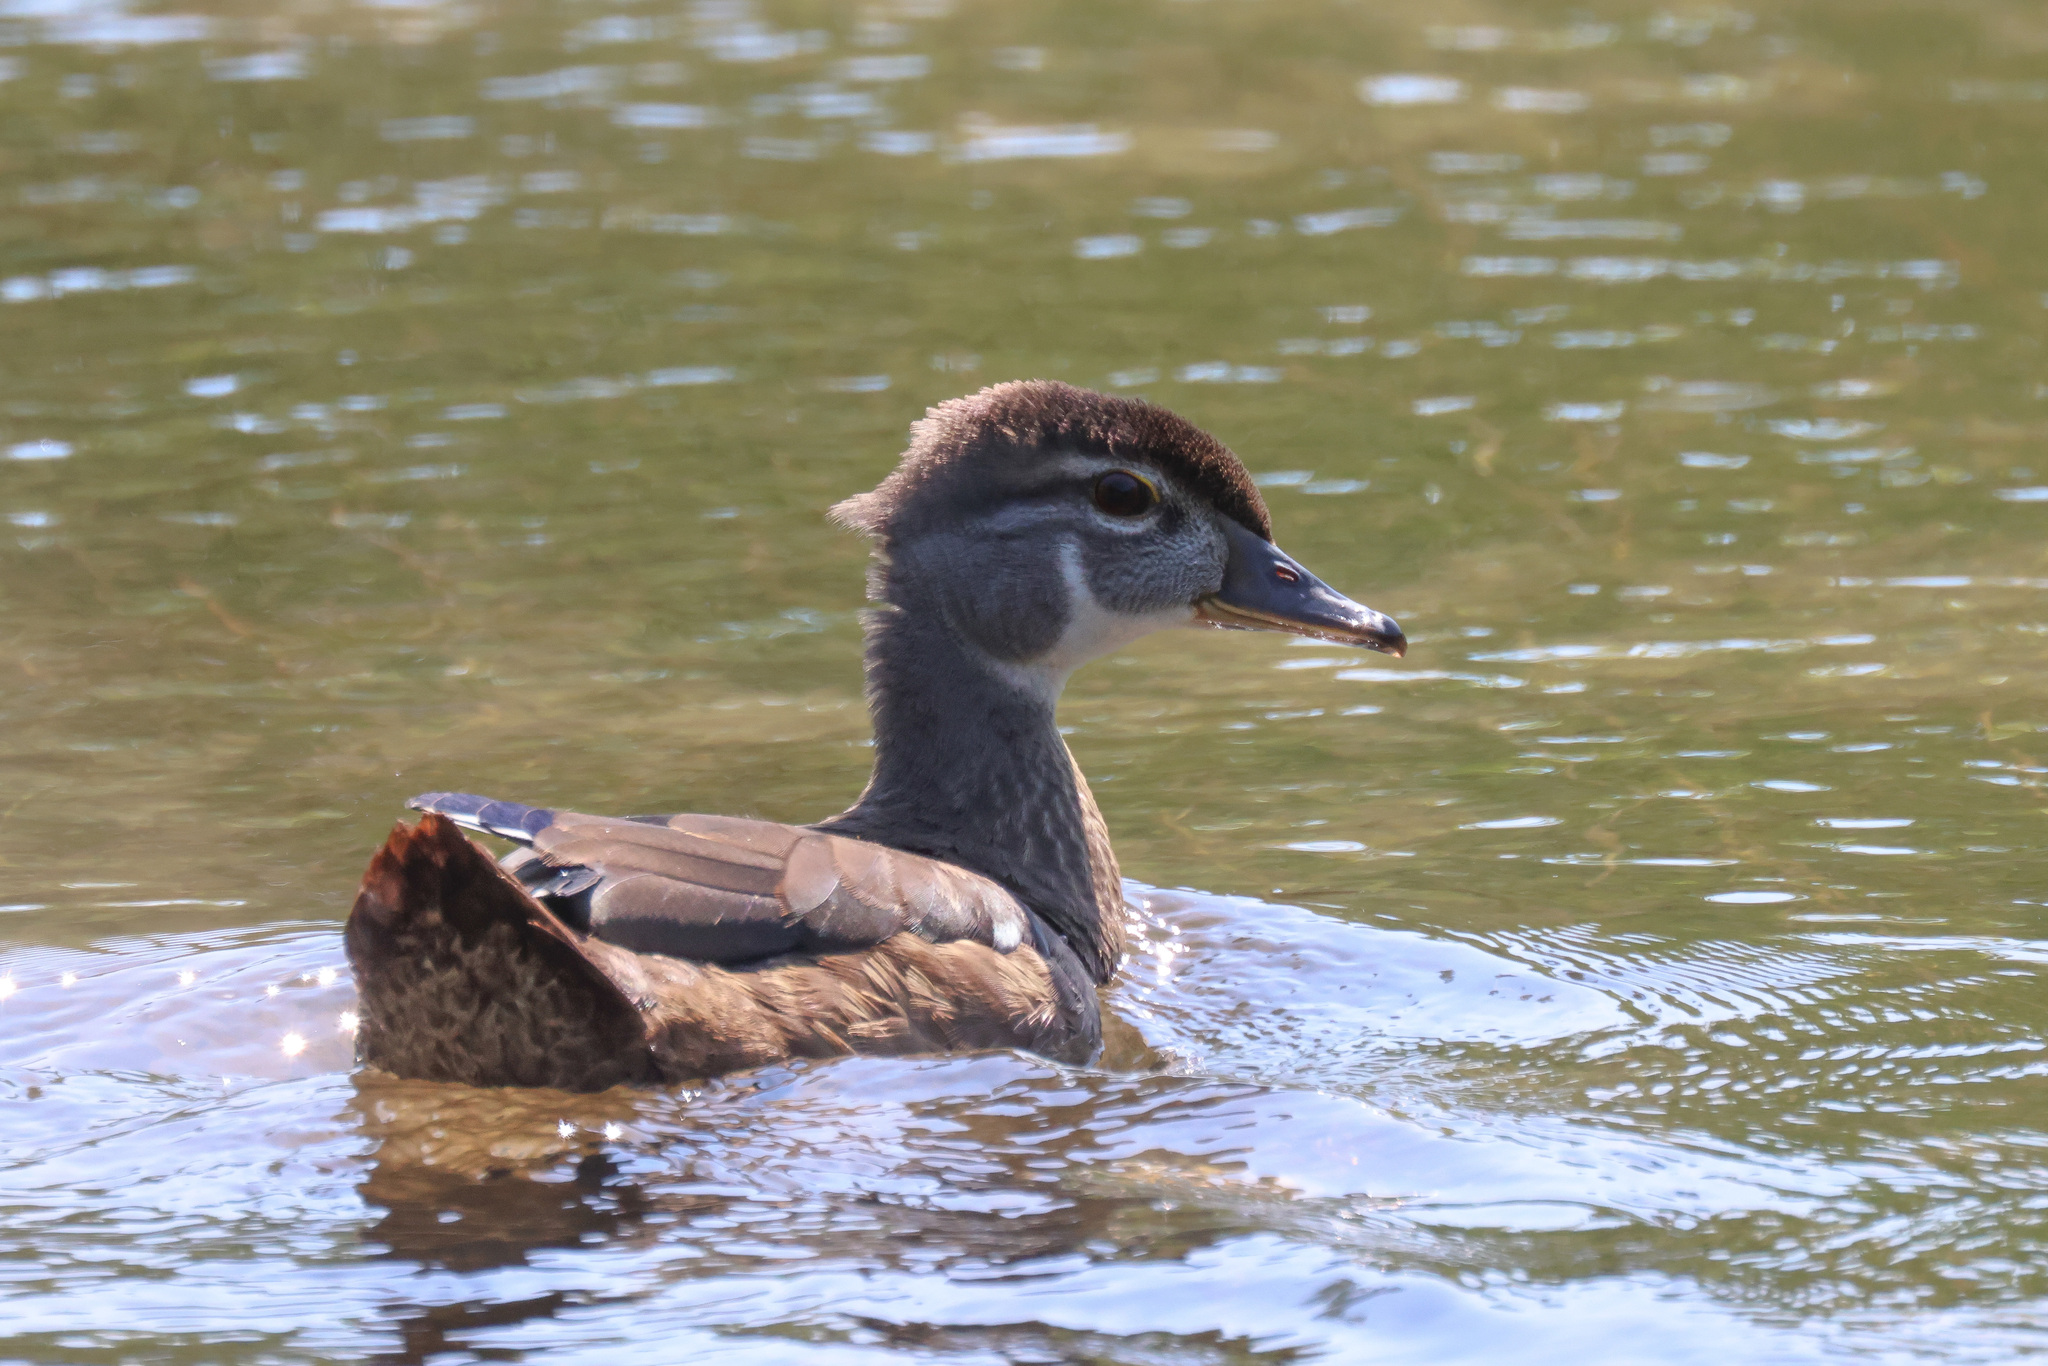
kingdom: Animalia
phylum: Chordata
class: Aves
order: Anseriformes
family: Anatidae
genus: Aix
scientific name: Aix sponsa
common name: Wood duck
